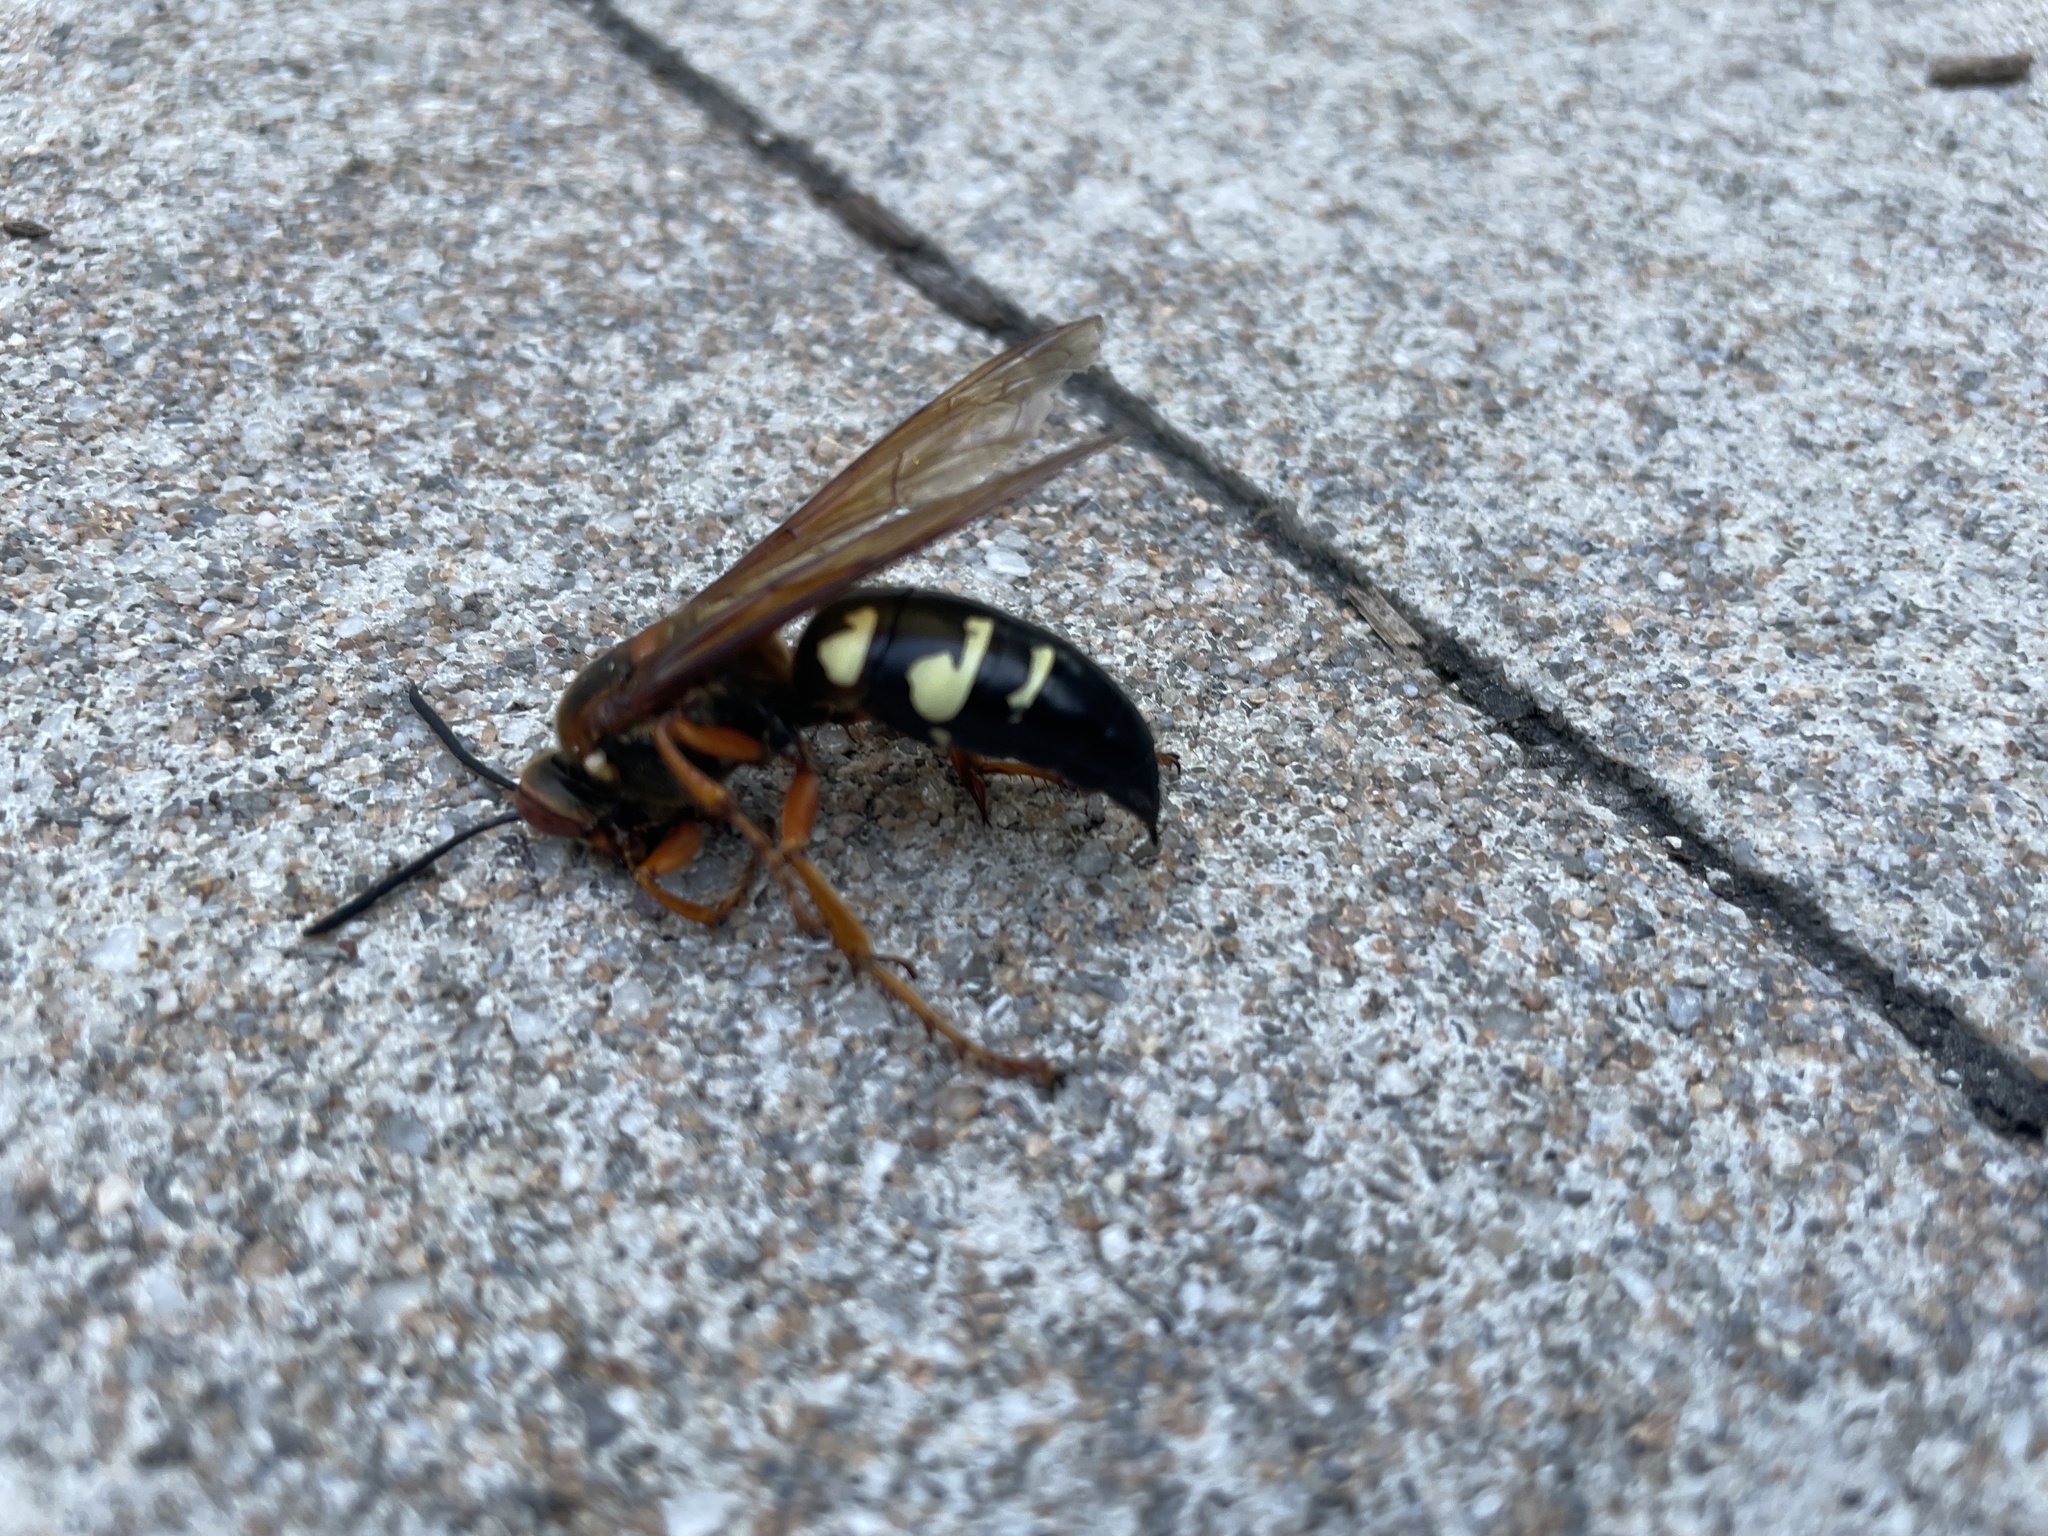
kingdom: Animalia
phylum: Arthropoda
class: Insecta
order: Hymenoptera
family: Crabronidae
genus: Sphecius
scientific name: Sphecius speciosus
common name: Cicada killer
